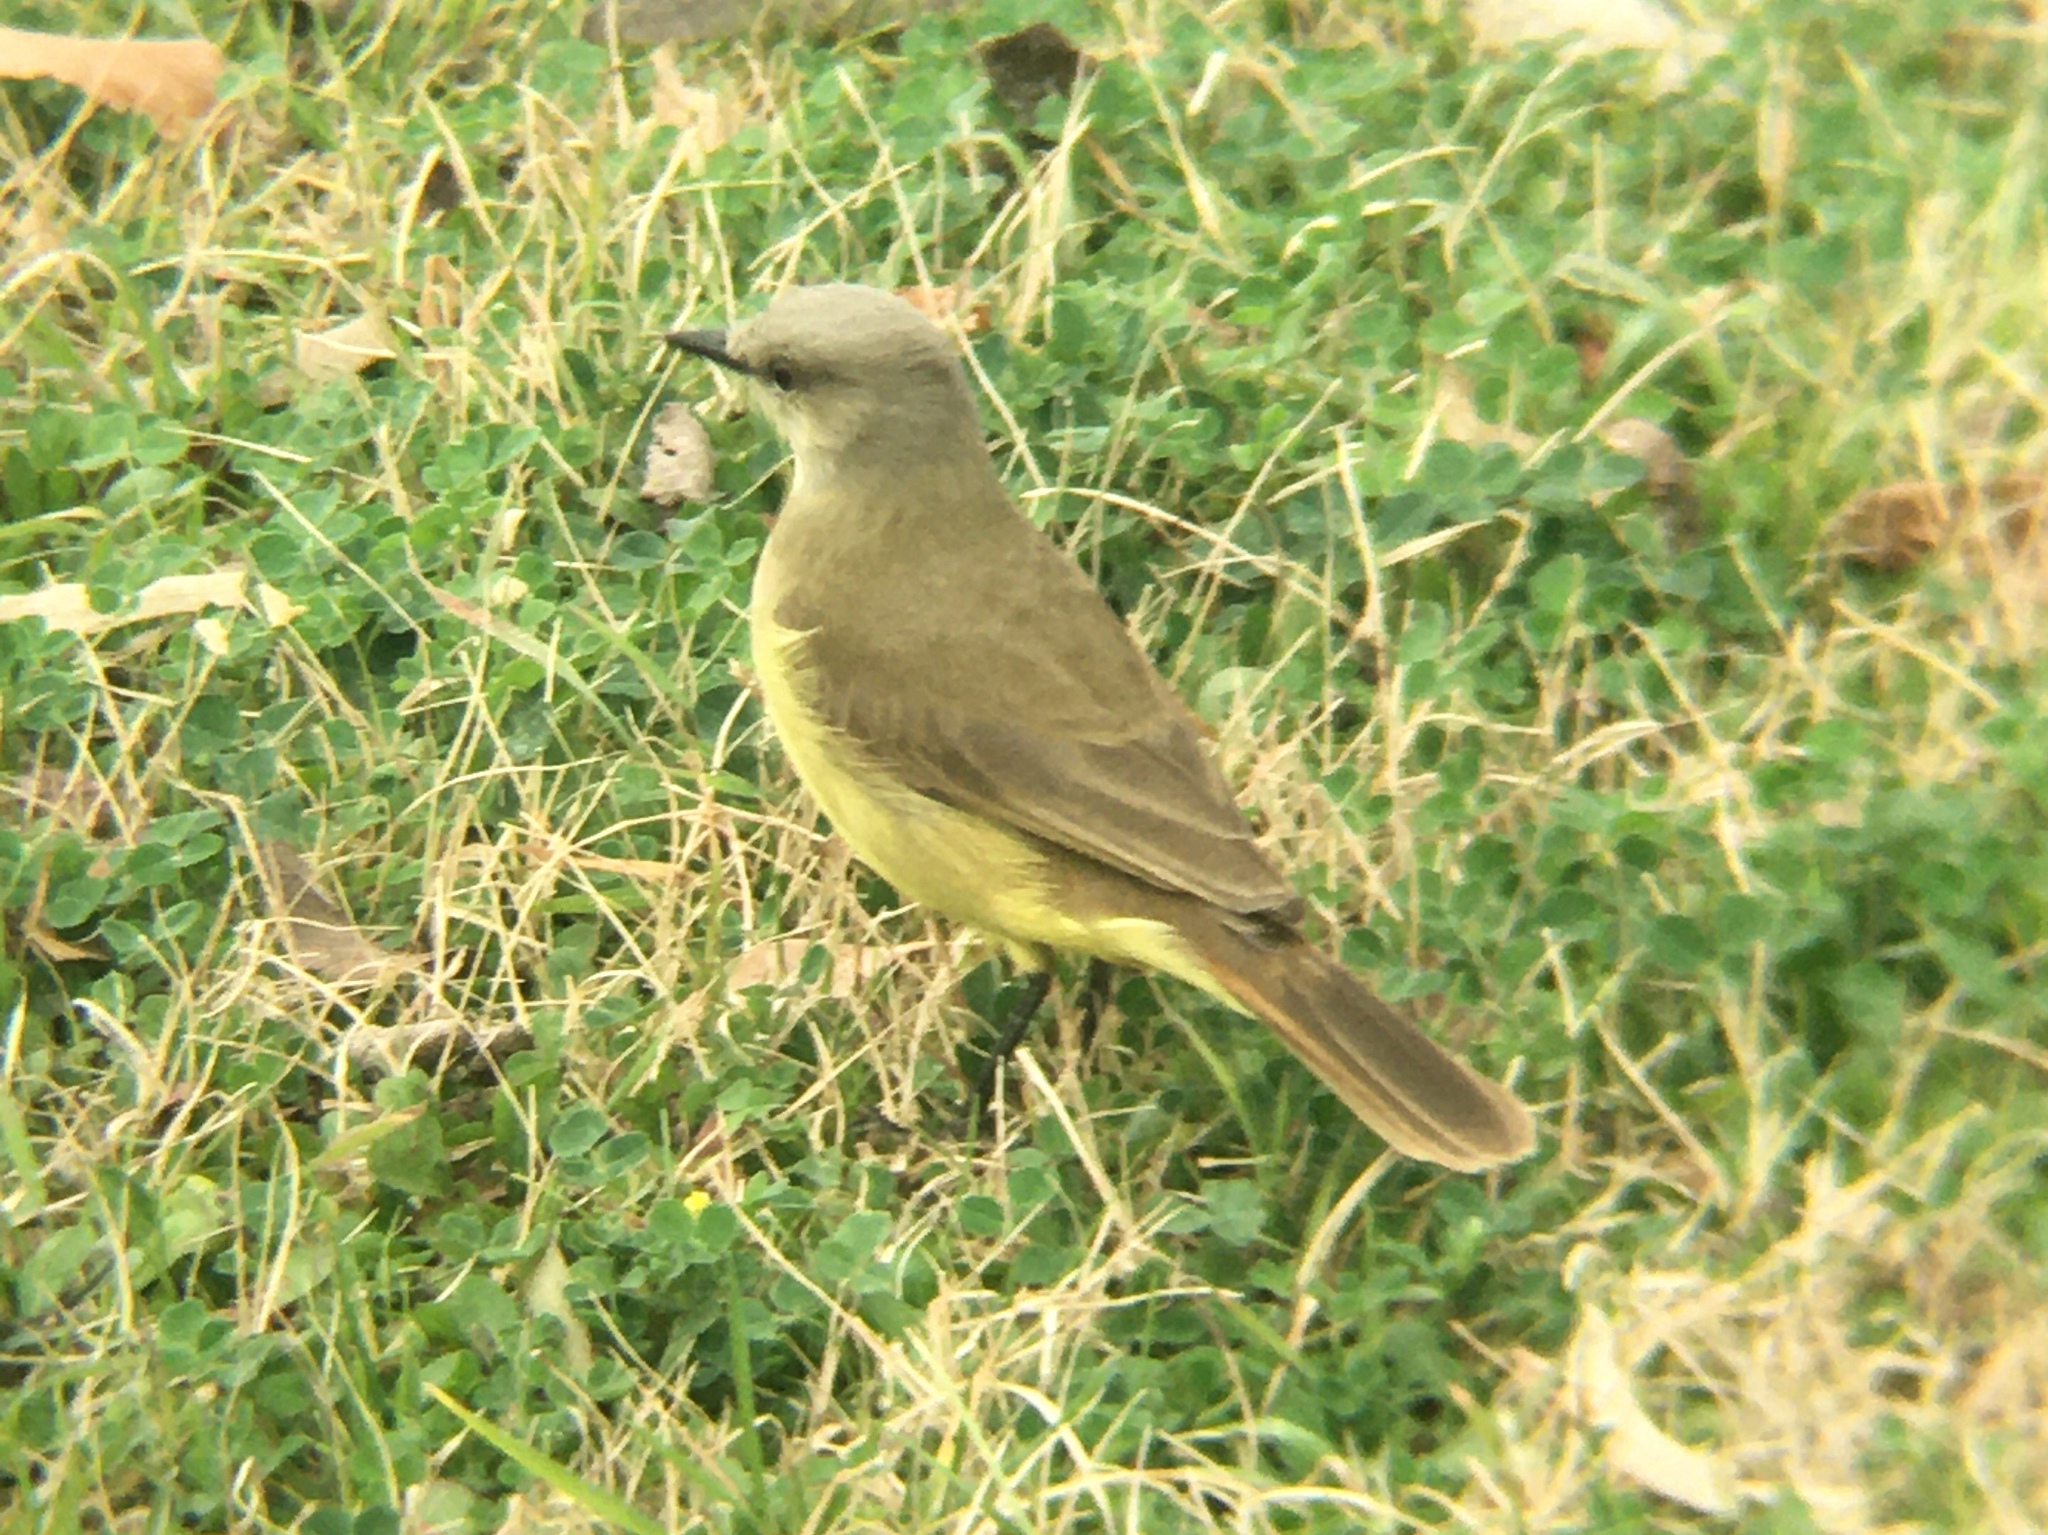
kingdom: Animalia
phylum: Chordata
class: Aves
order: Passeriformes
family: Tyrannidae
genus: Machetornis
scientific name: Machetornis rixosa
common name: Cattle tyrant
